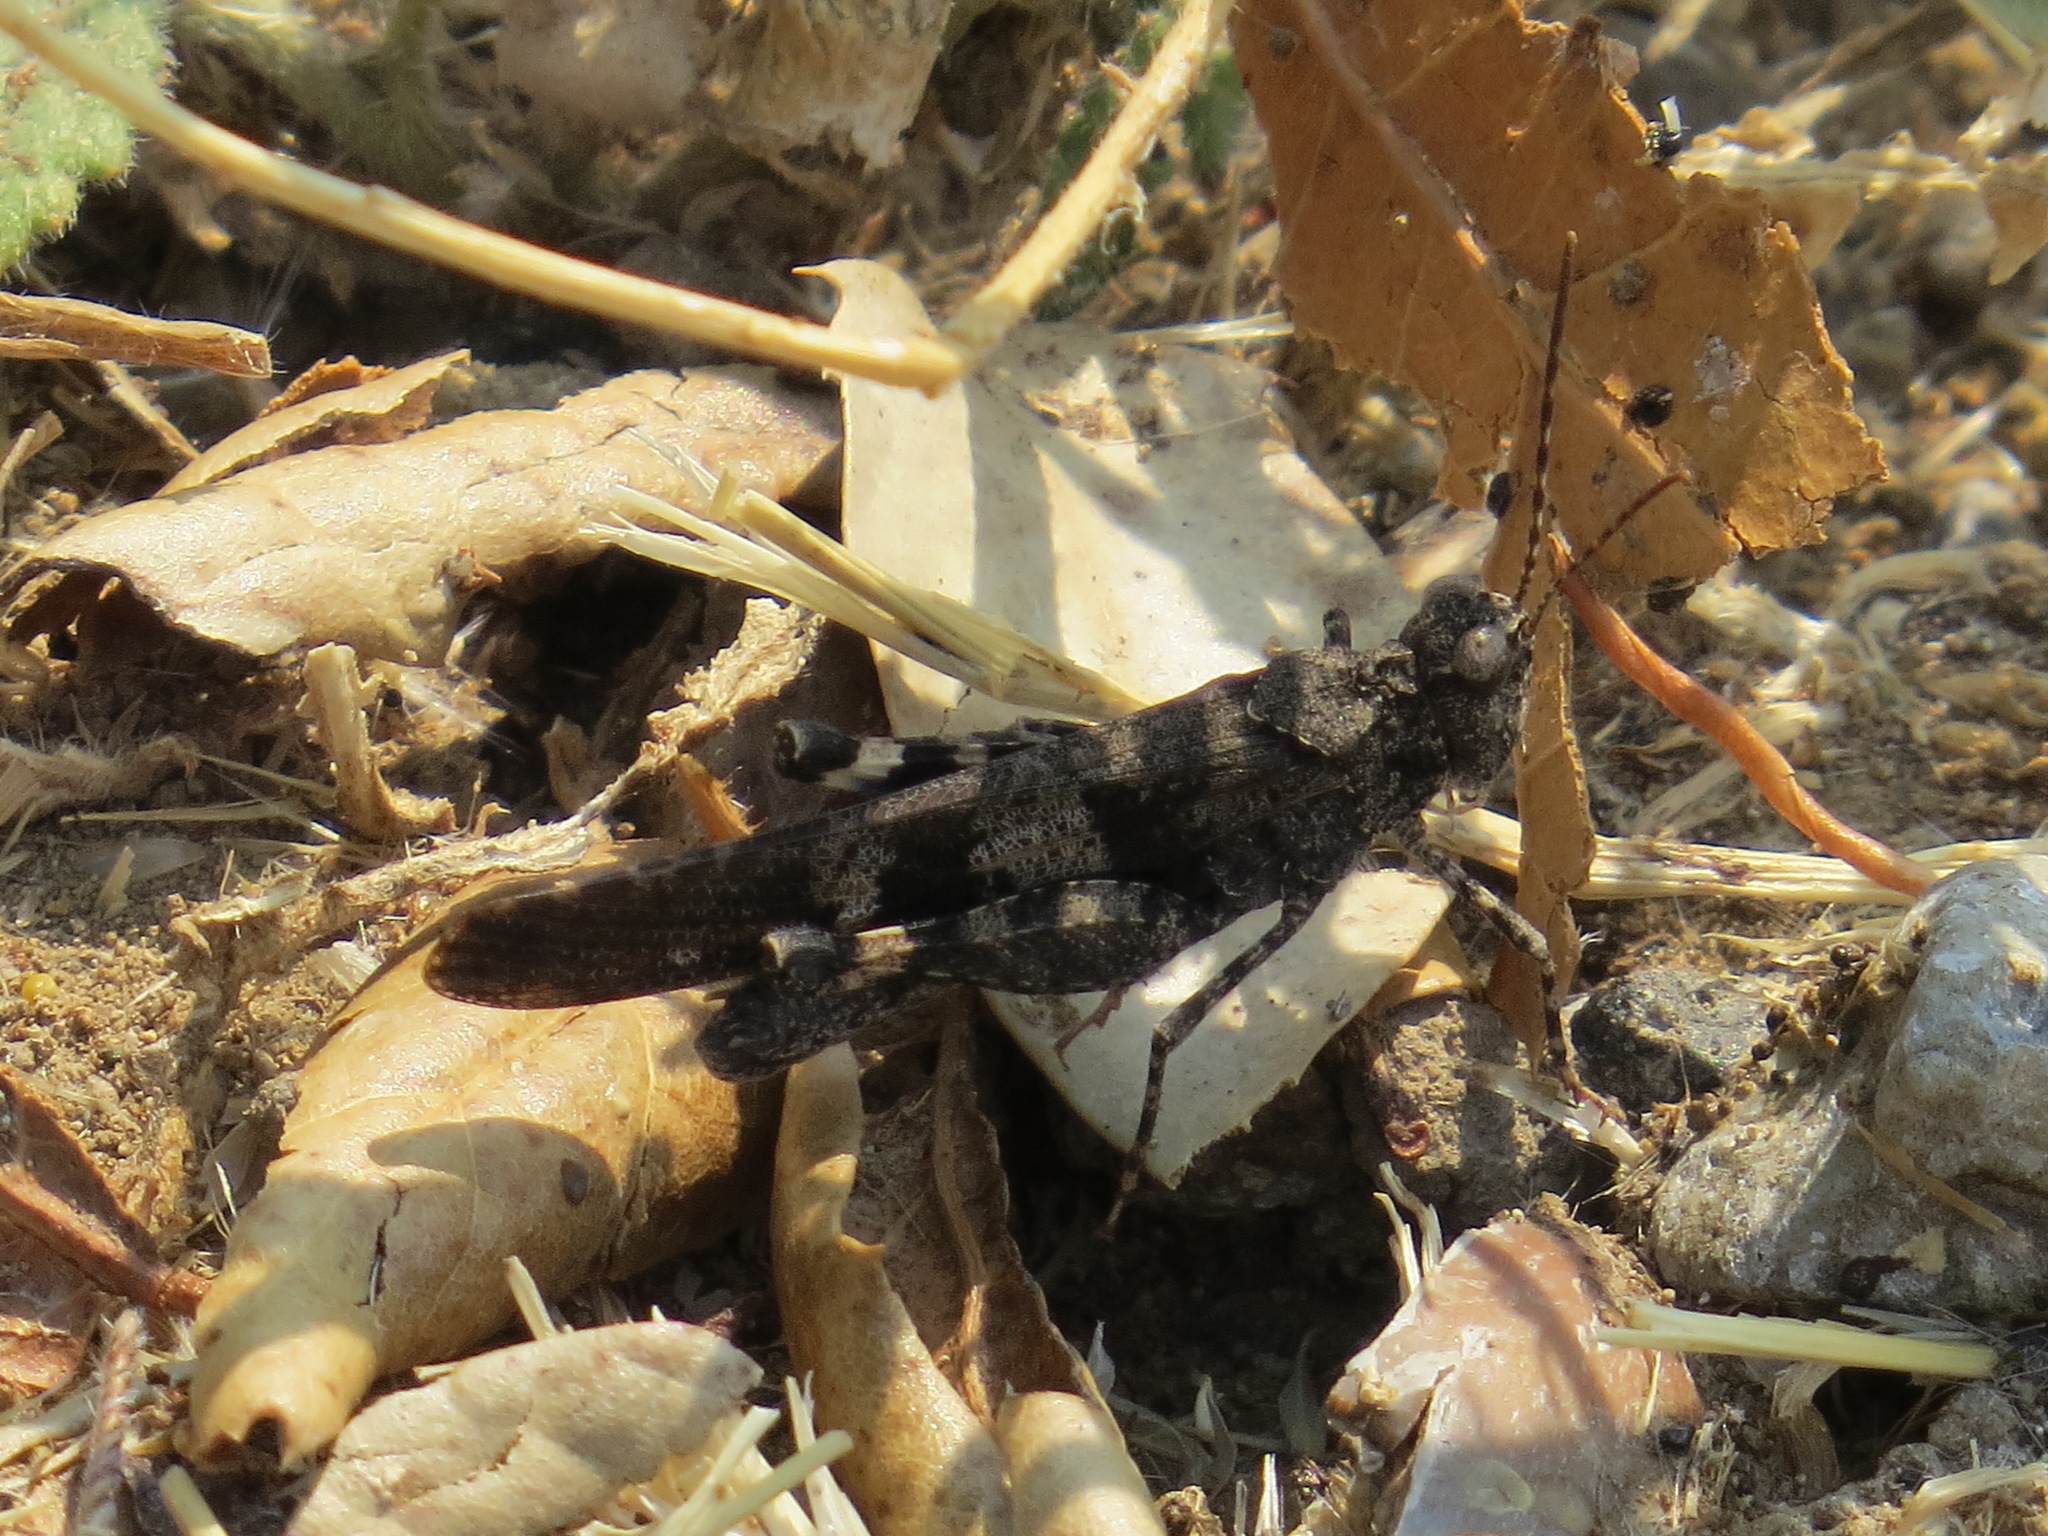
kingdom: Animalia
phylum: Arthropoda
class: Insecta
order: Orthoptera
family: Acrididae
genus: Trimerotropis
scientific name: Trimerotropis fontana
